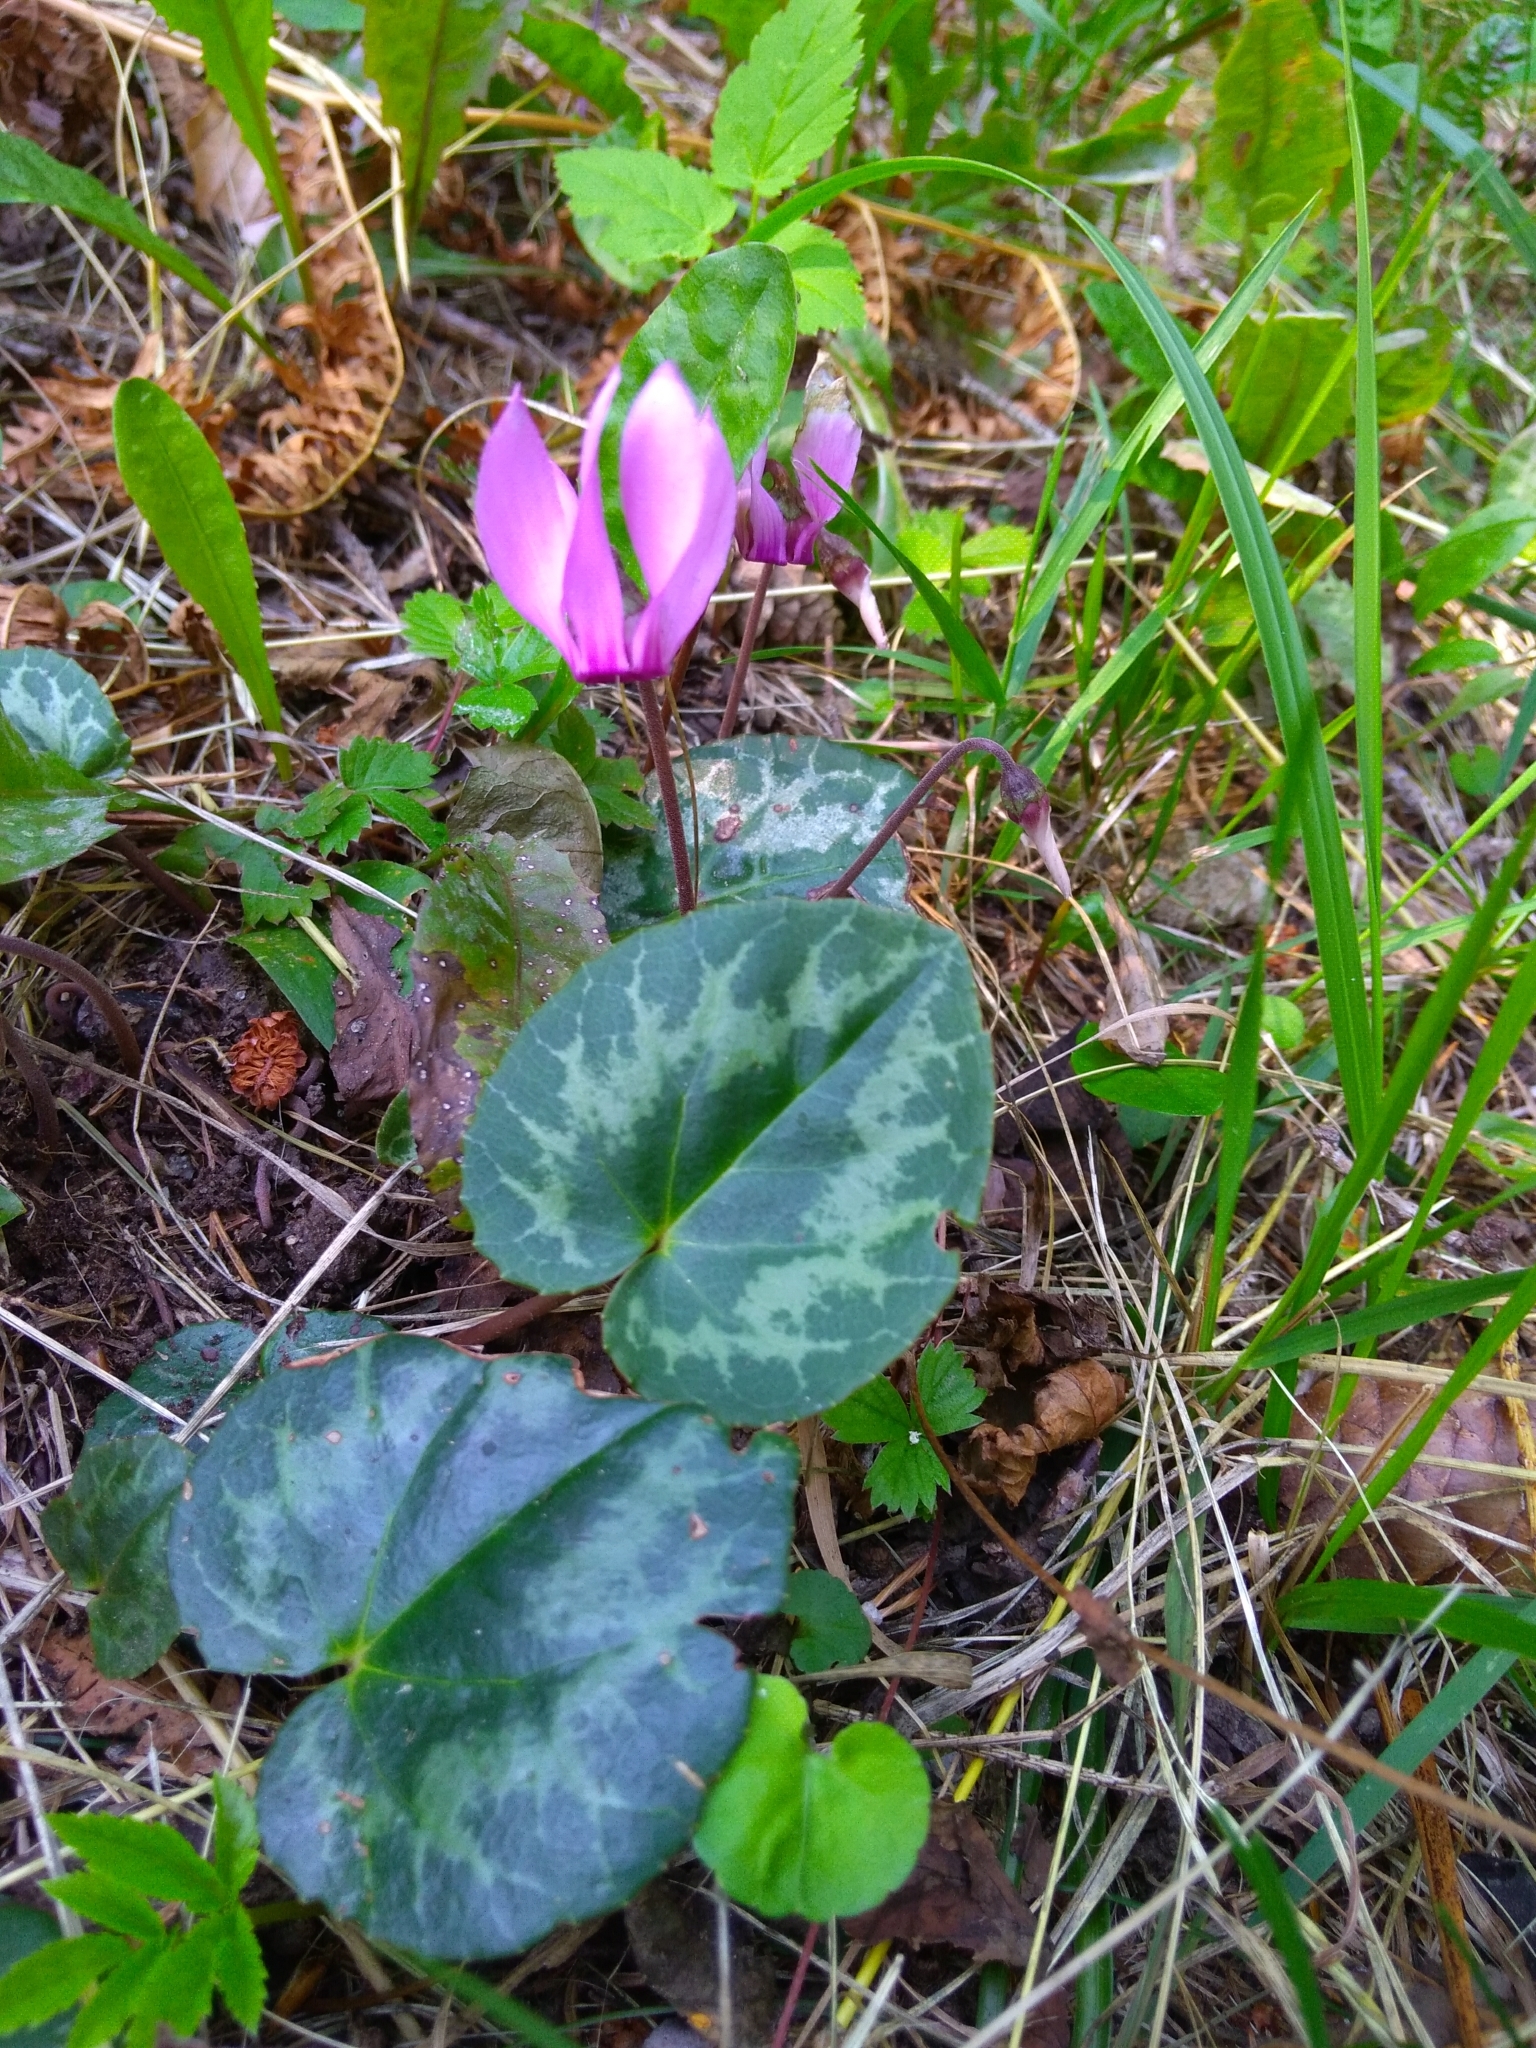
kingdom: Plantae
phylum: Tracheophyta
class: Magnoliopsida
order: Ericales
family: Primulaceae
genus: Cyclamen
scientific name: Cyclamen purpurascens
